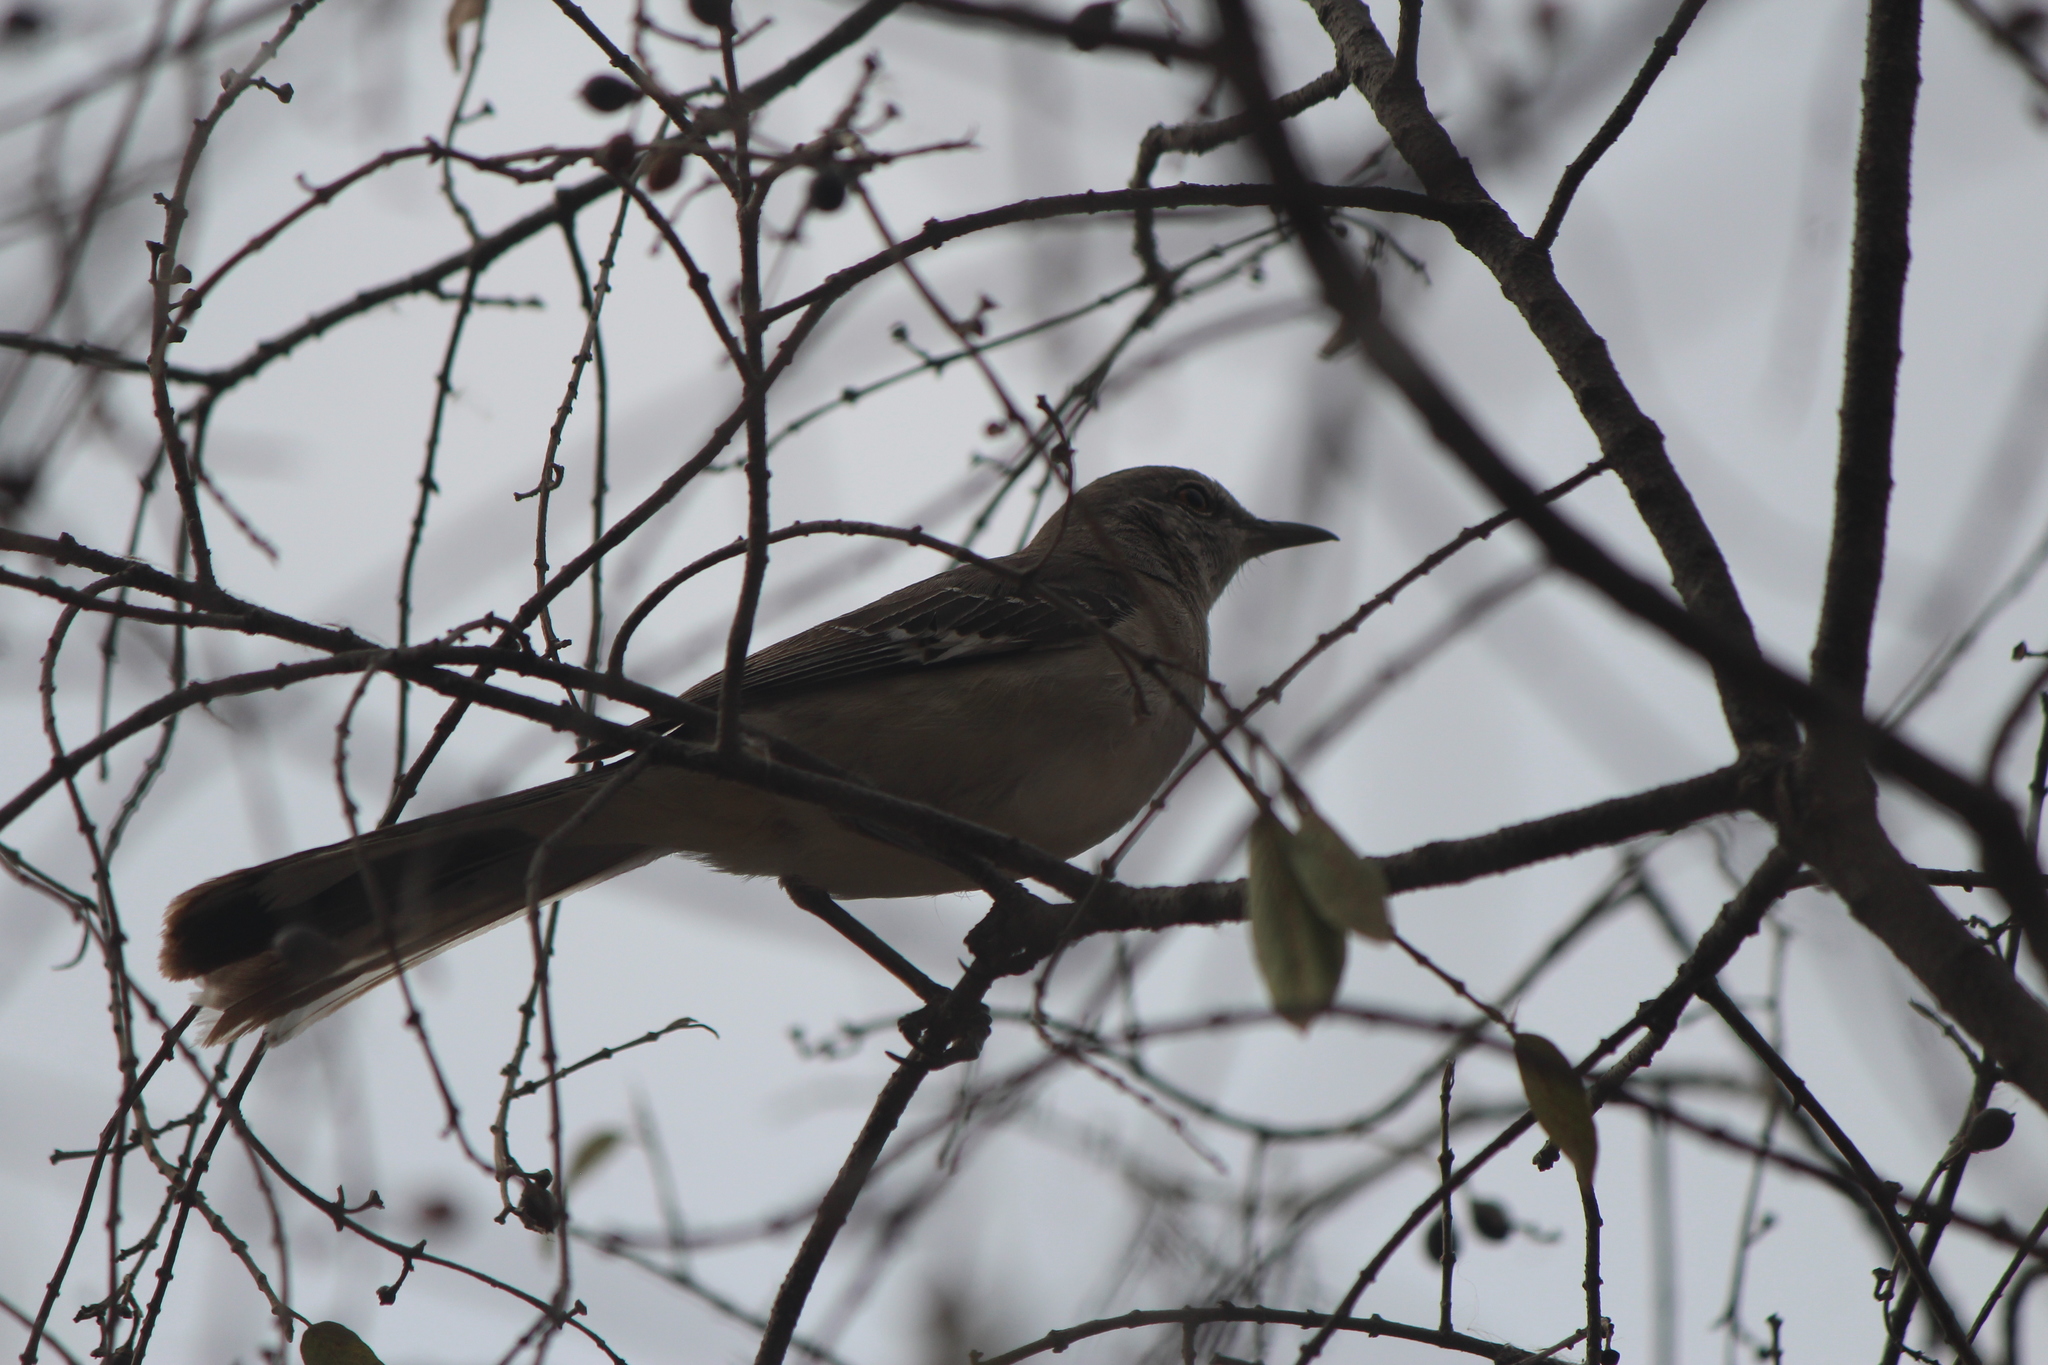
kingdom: Animalia
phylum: Chordata
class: Aves
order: Passeriformes
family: Mimidae
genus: Mimus
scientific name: Mimus polyglottos
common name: Northern mockingbird
